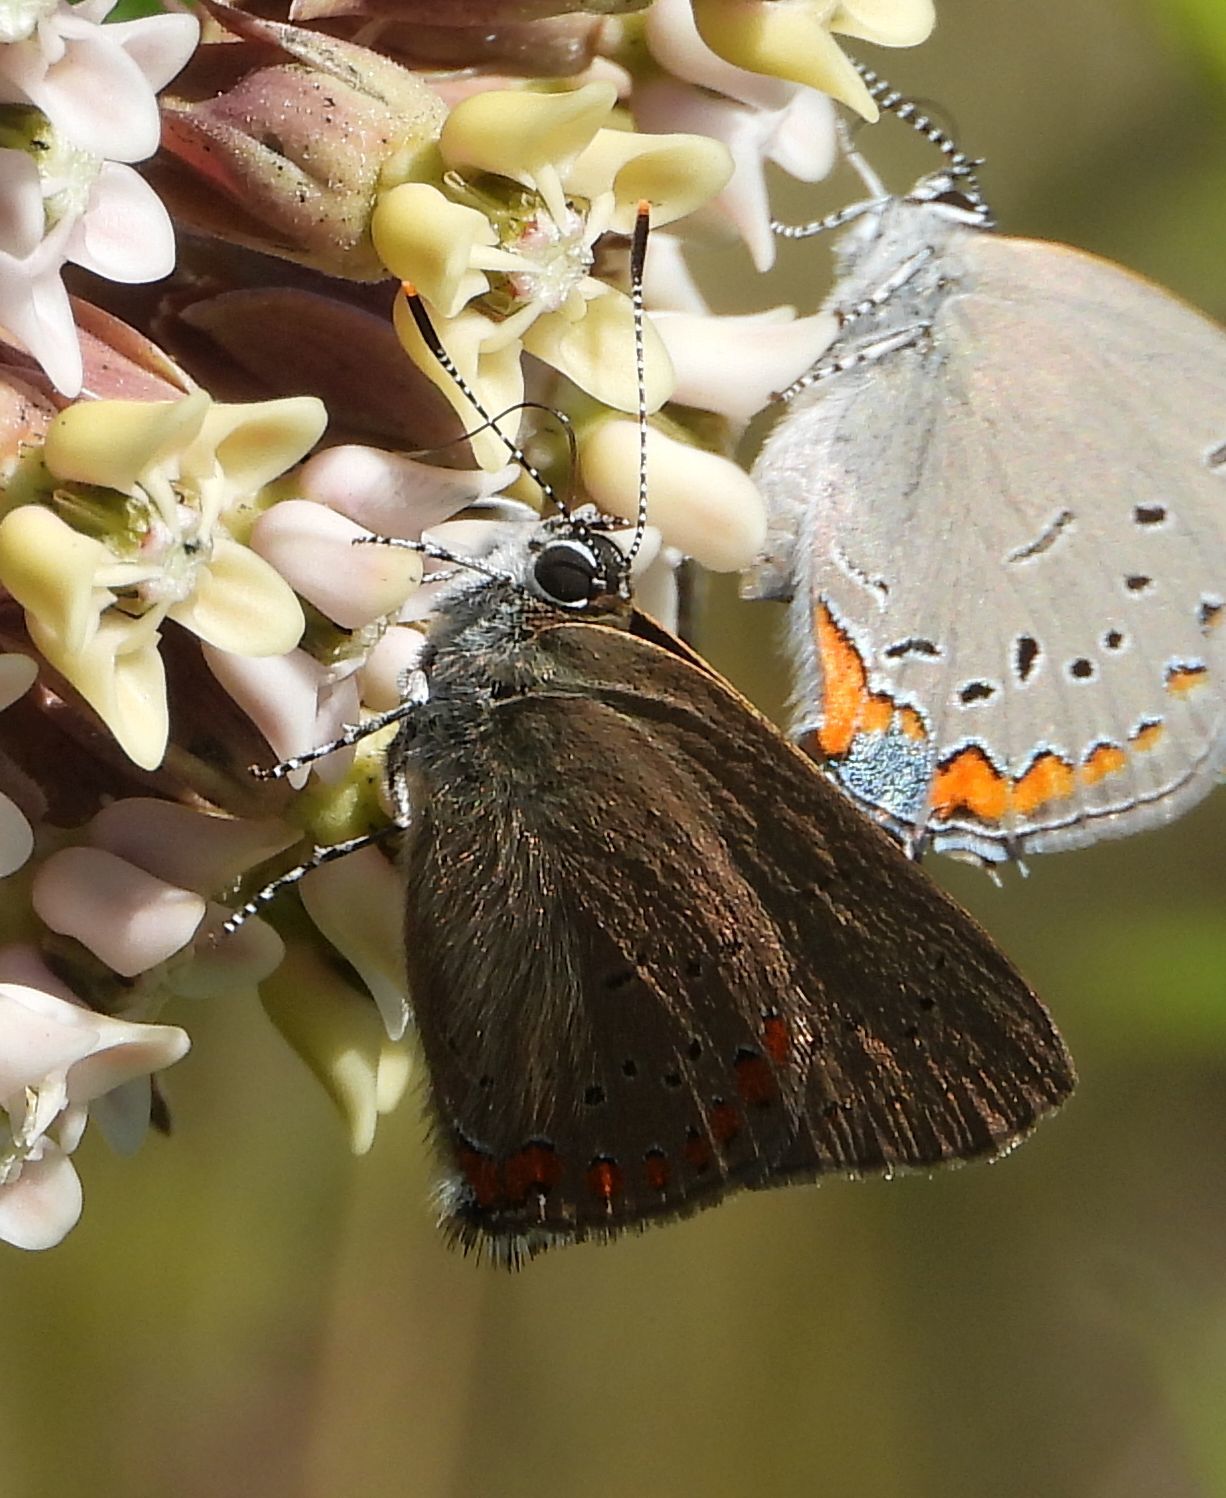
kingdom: Animalia
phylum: Arthropoda
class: Insecta
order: Lepidoptera
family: Lycaenidae
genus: Harkenclenus
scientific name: Harkenclenus titus
